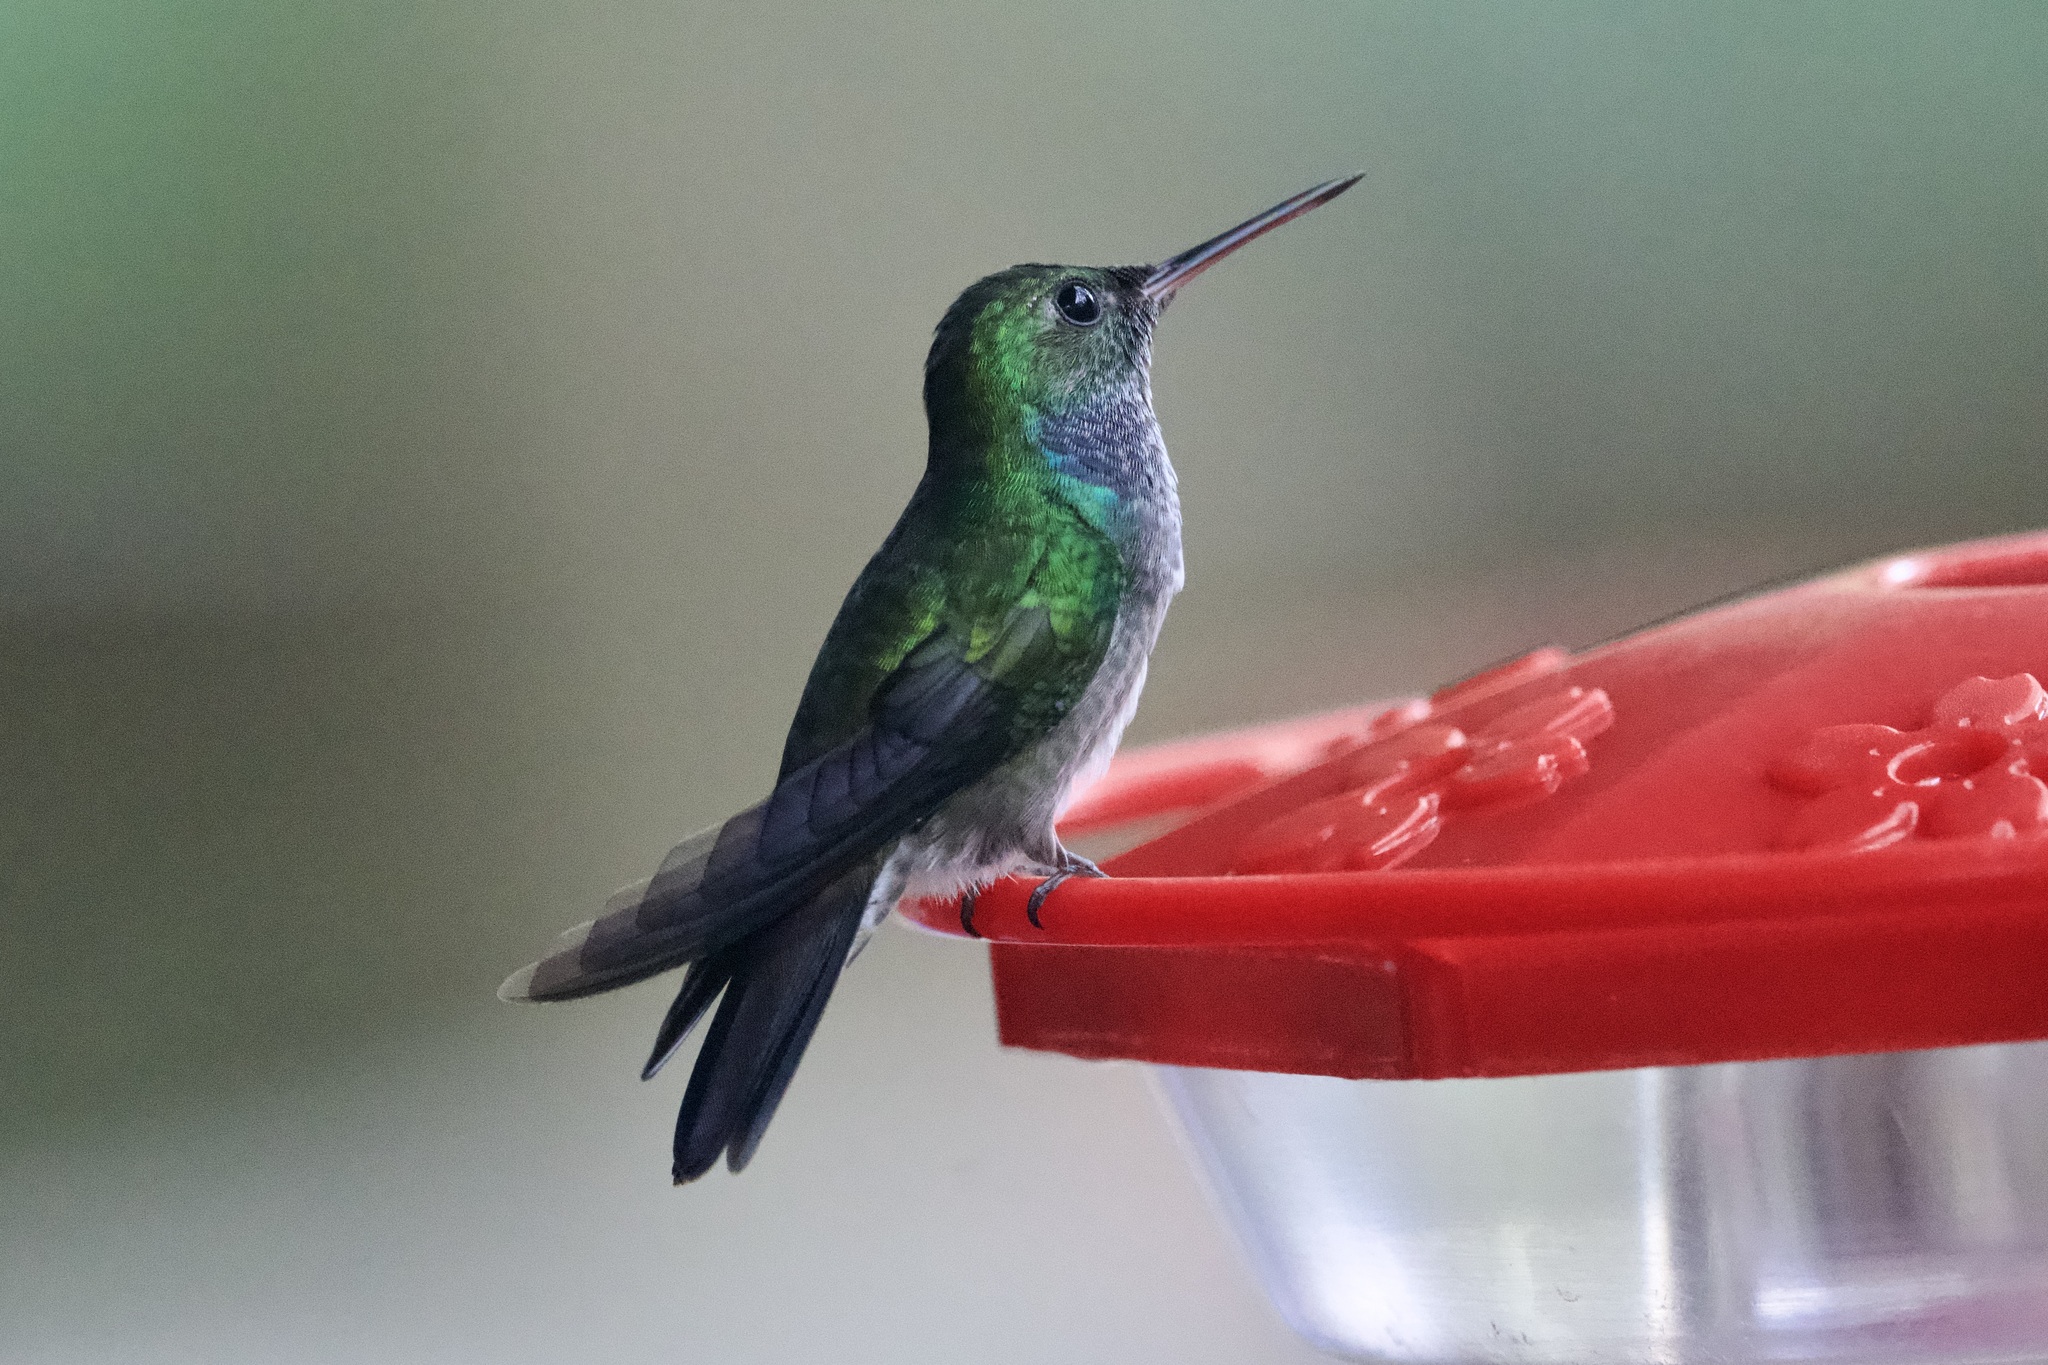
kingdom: Animalia
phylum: Chordata
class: Aves
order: Apodiformes
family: Trochilidae
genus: Polyerata
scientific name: Polyerata amabilis
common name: Blue-chested hummingbird
